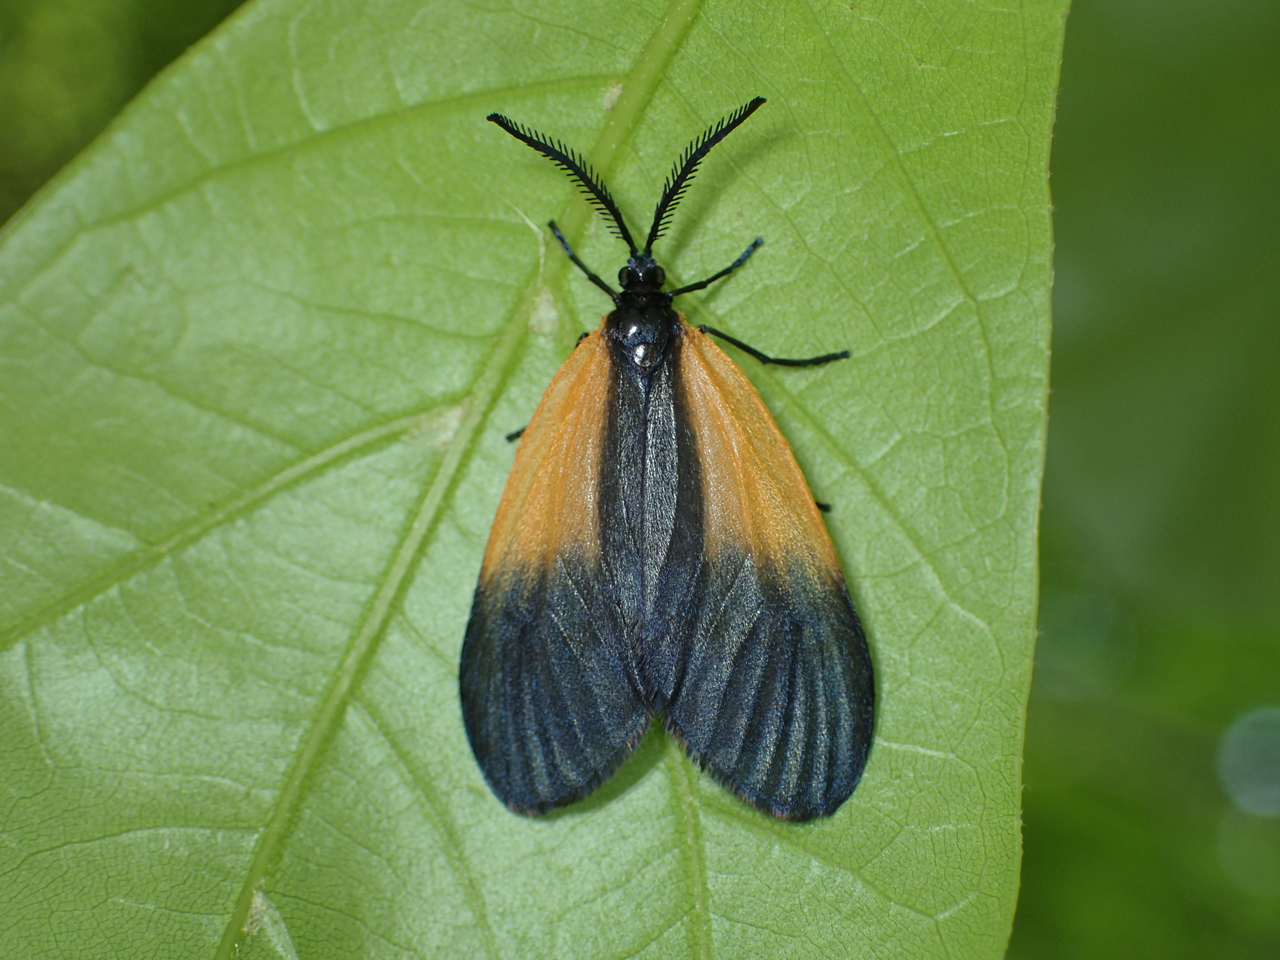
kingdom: Animalia
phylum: Arthropoda
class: Insecta
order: Lepidoptera
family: Zygaenidae
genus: Malthaca
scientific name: Malthaca dimidiata
